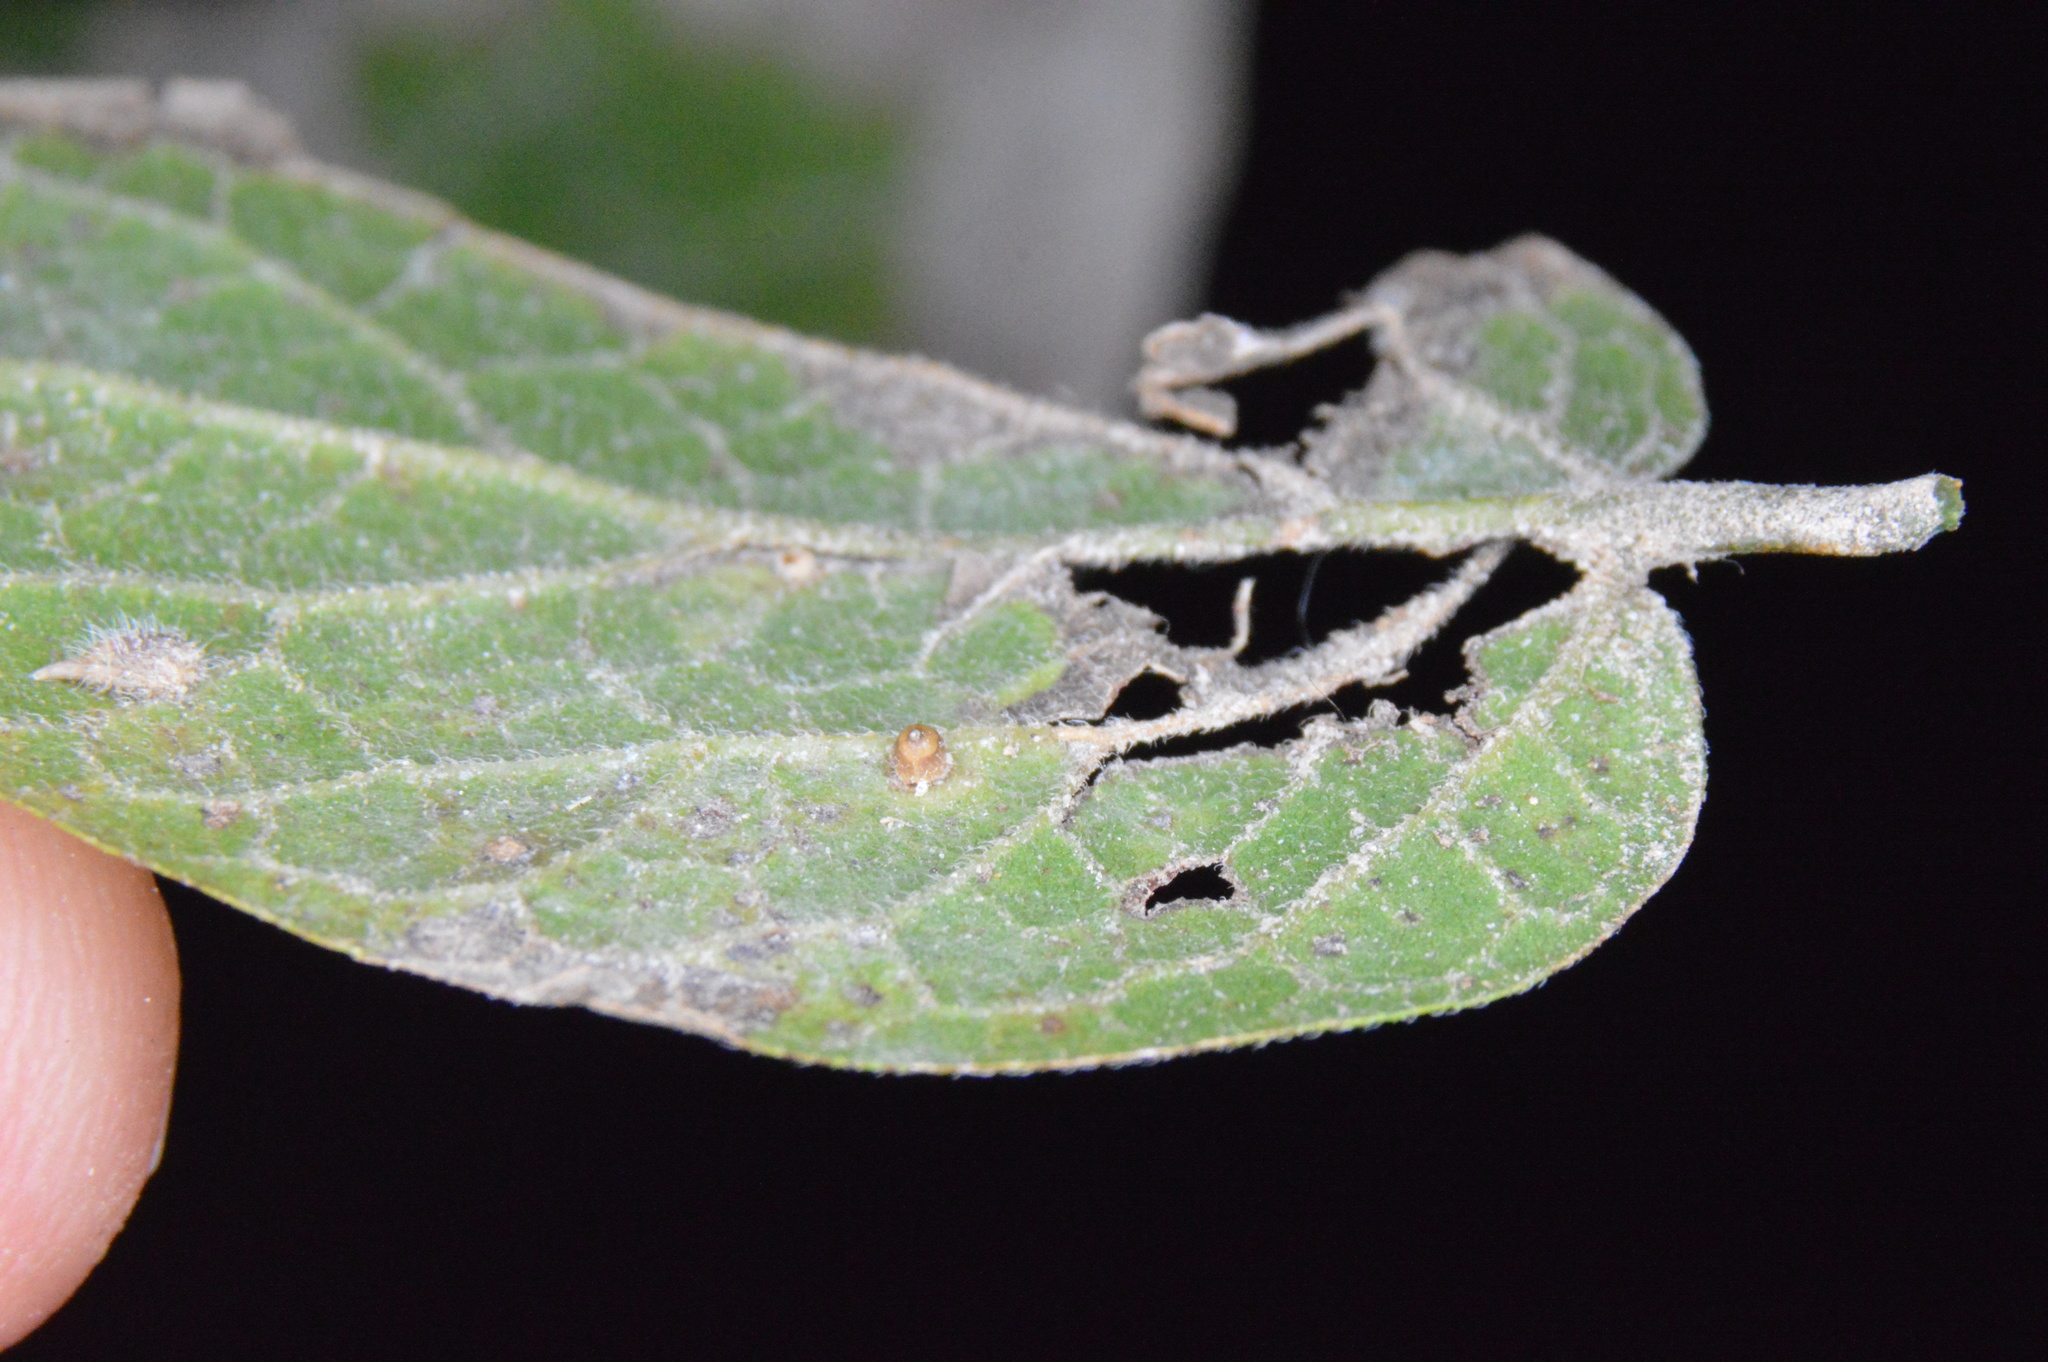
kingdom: Animalia
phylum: Arthropoda
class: Insecta
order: Diptera
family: Cecidomyiidae
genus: Celticecis
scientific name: Celticecis cupiformis
